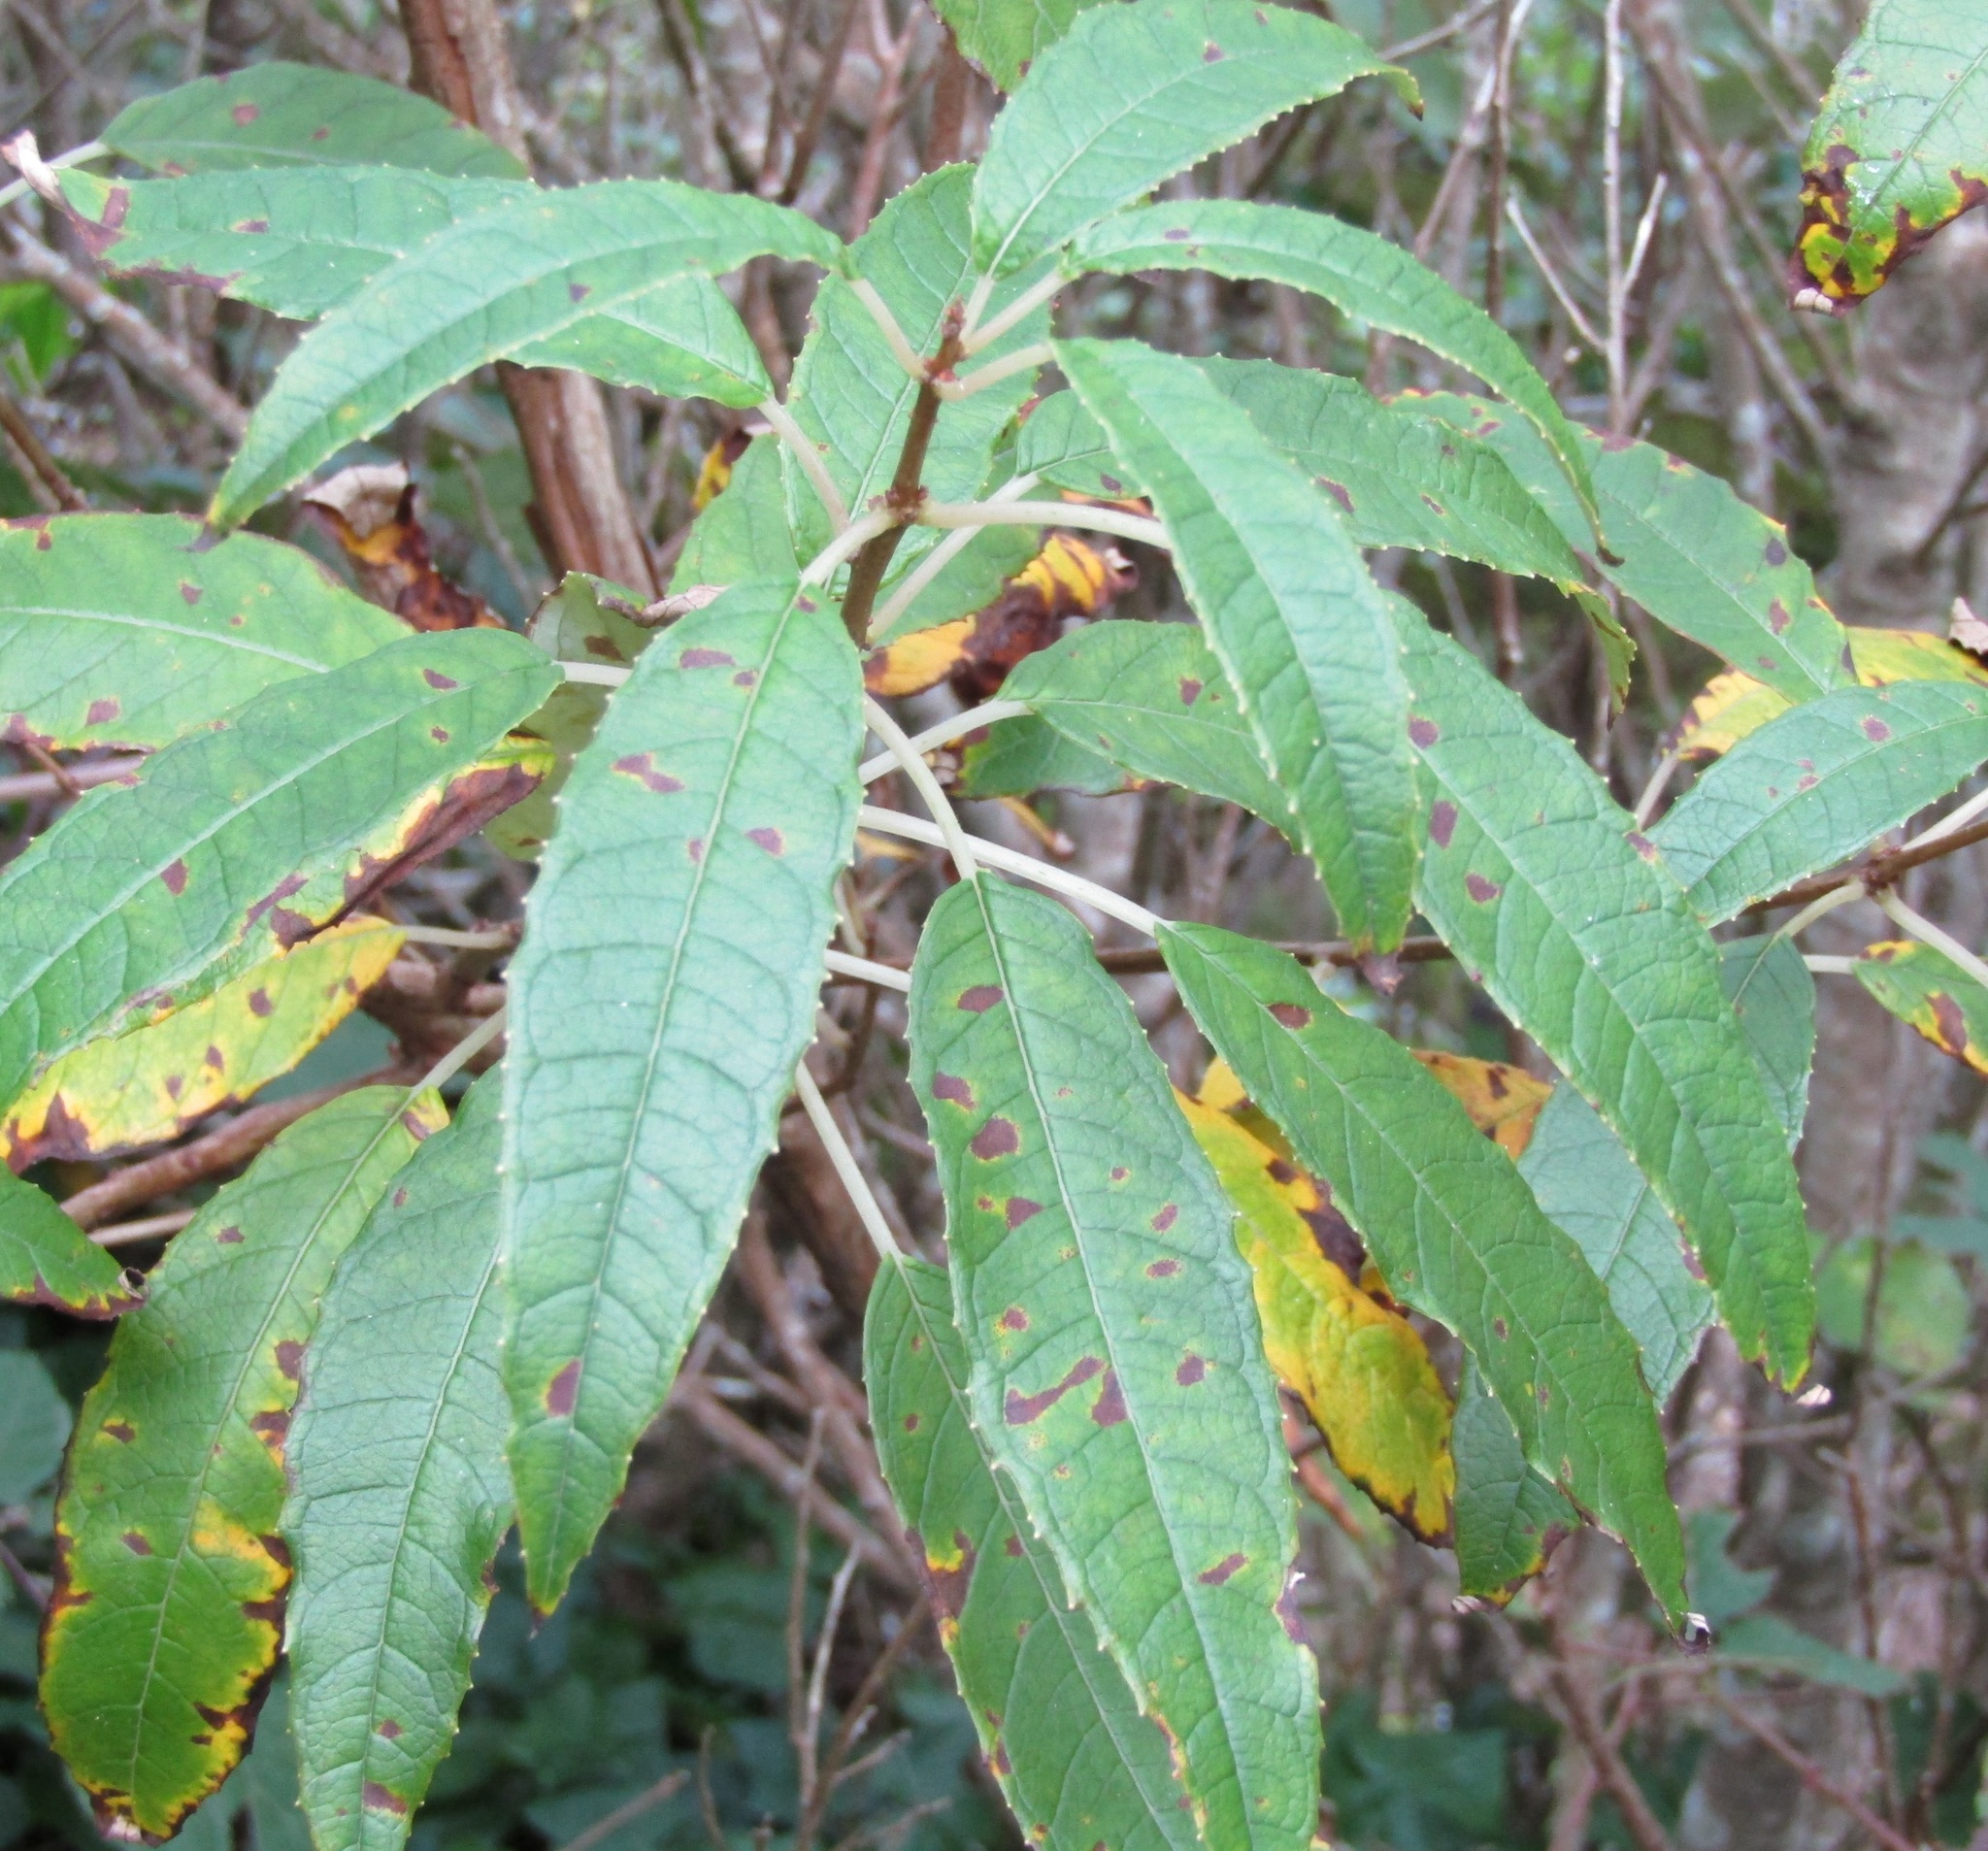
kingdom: Plantae
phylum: Tracheophyta
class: Magnoliopsida
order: Myrtales
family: Onagraceae
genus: Fuchsia
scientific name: Fuchsia excorticata
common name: Tree fuchsia
